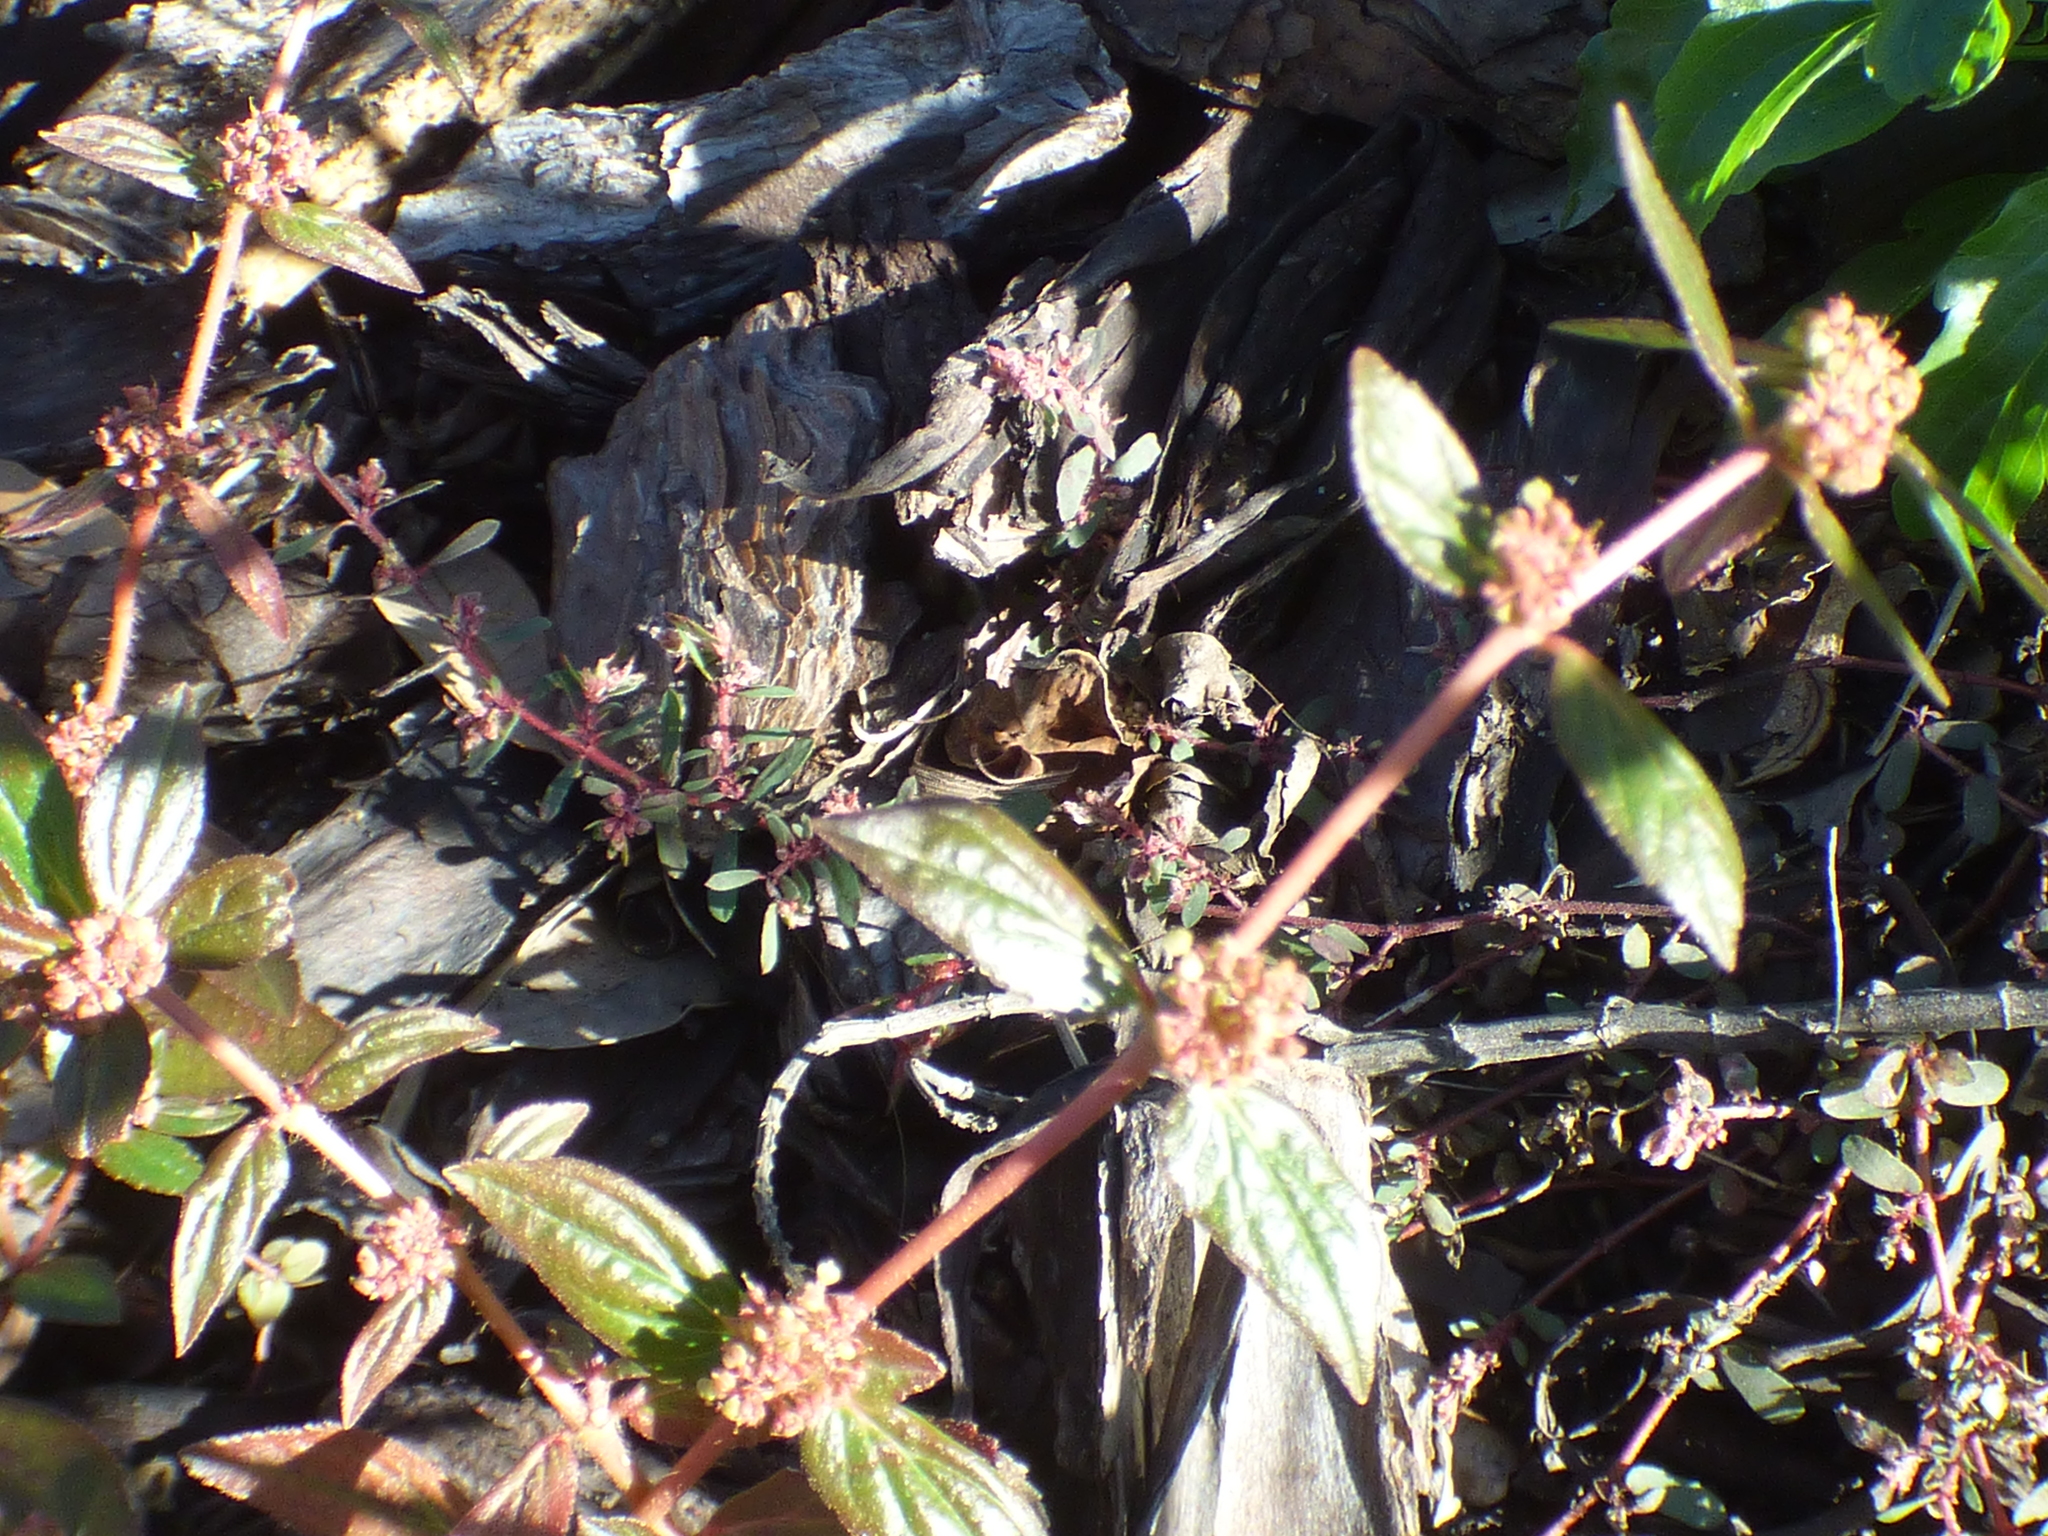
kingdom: Plantae
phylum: Tracheophyta
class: Magnoliopsida
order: Malpighiales
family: Euphorbiaceae
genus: Euphorbia
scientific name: Euphorbia hirta
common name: Pillpod sandmat
